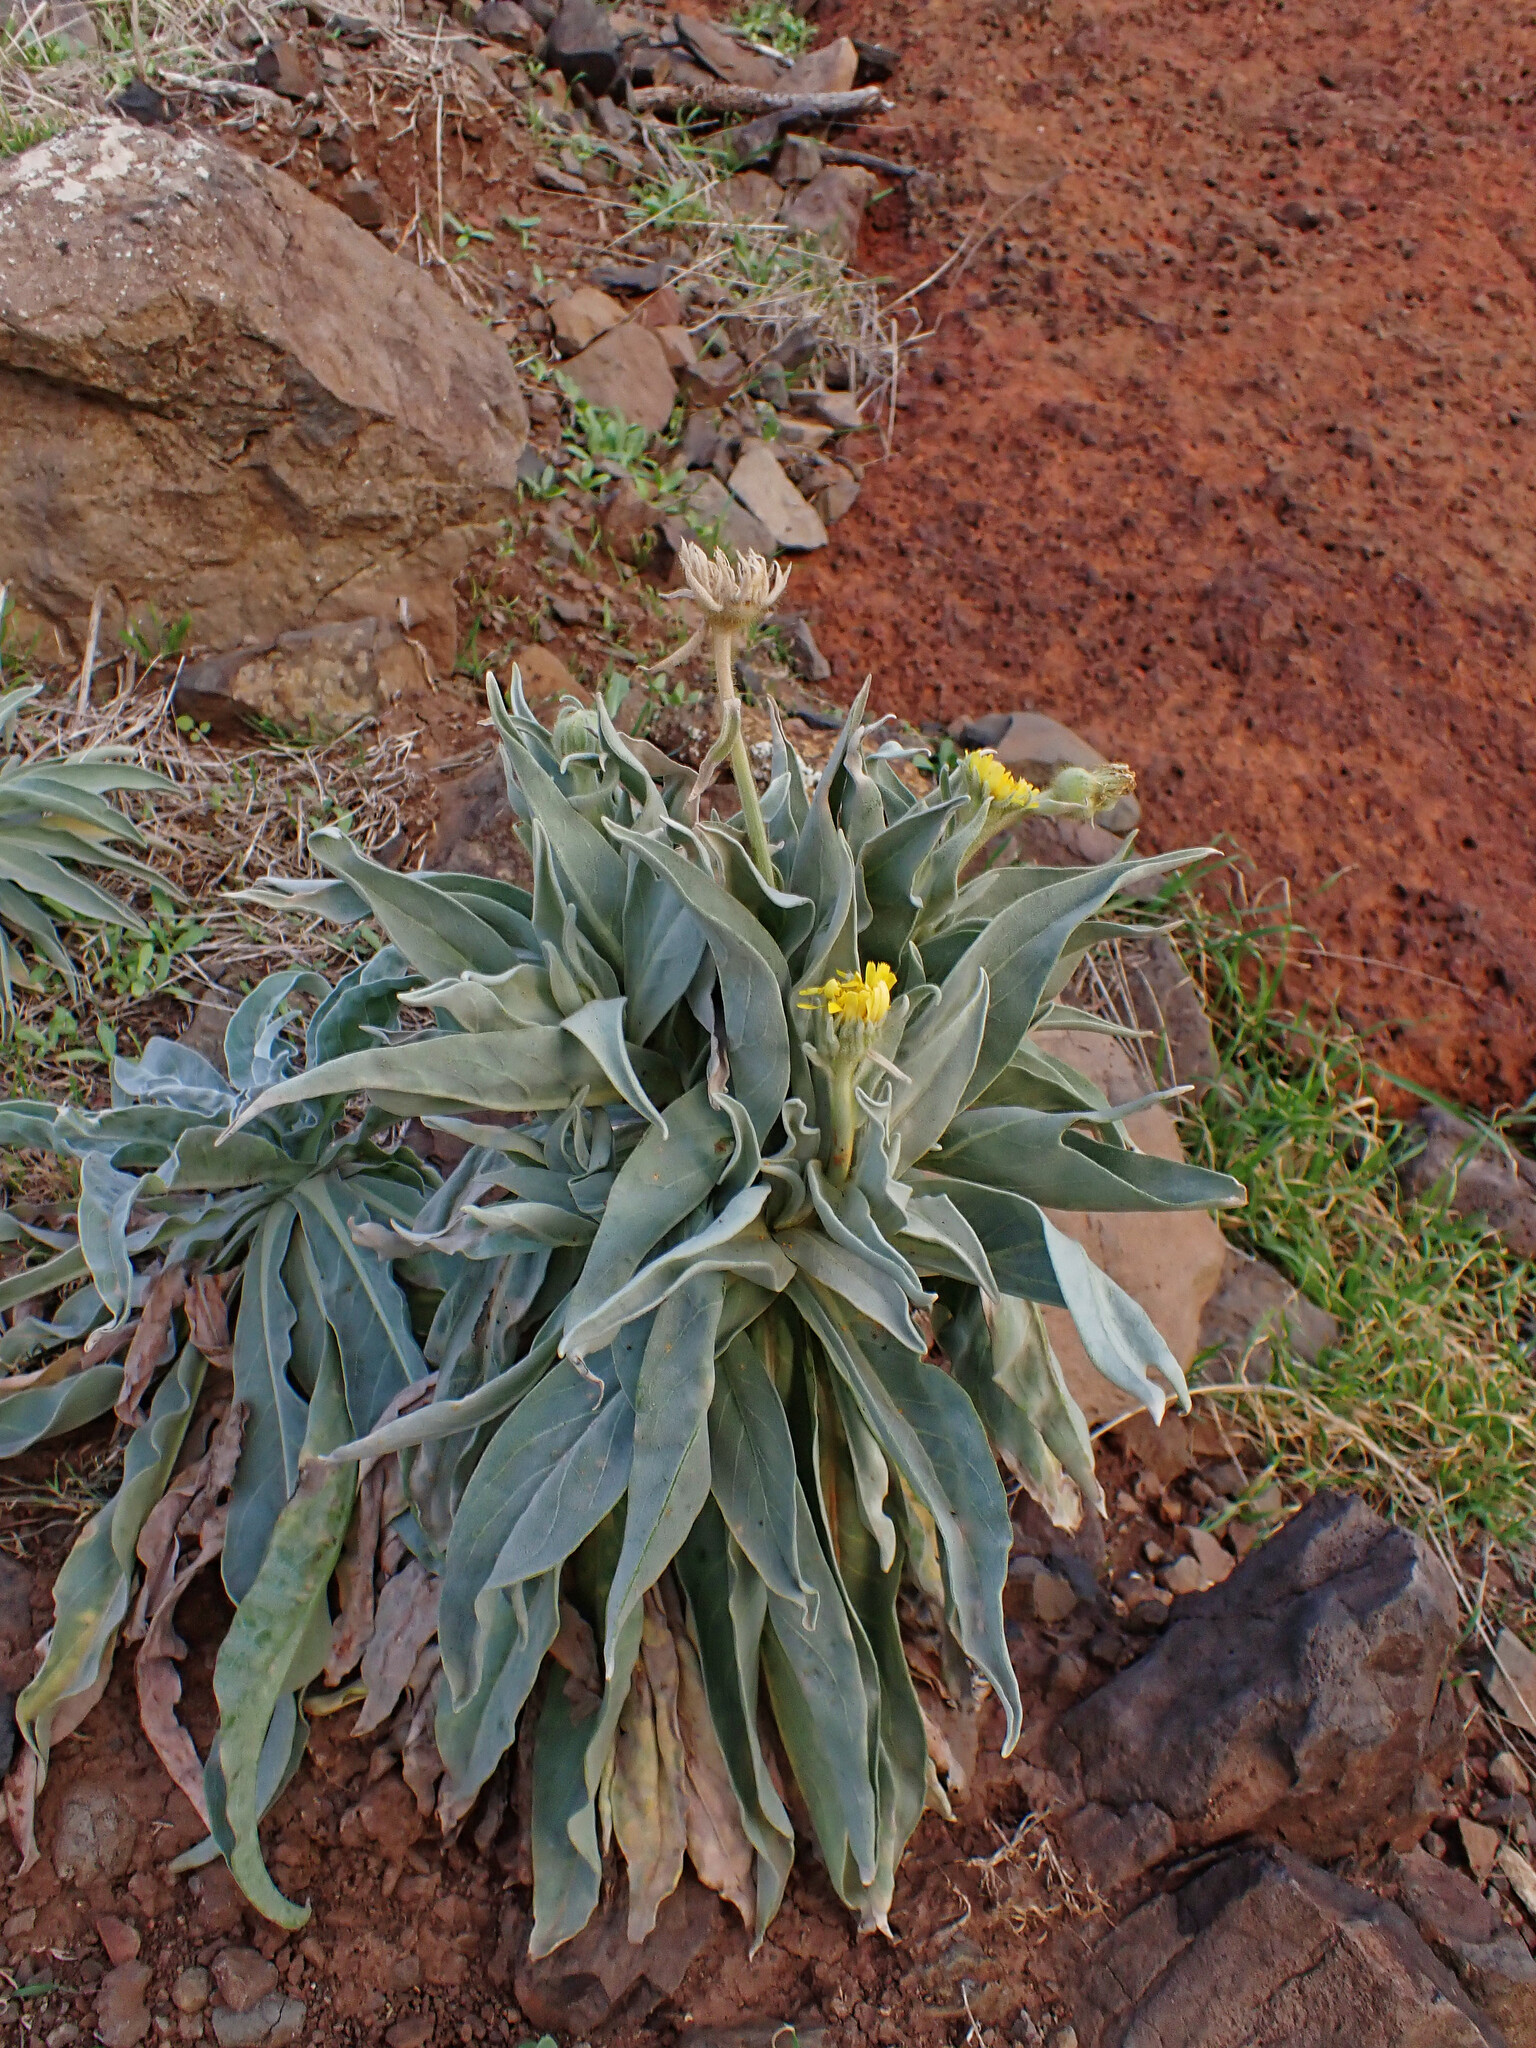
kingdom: Plantae
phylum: Tracheophyta
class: Magnoliopsida
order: Asterales
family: Asteraceae
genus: Andryala
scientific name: Andryala glandulosa
